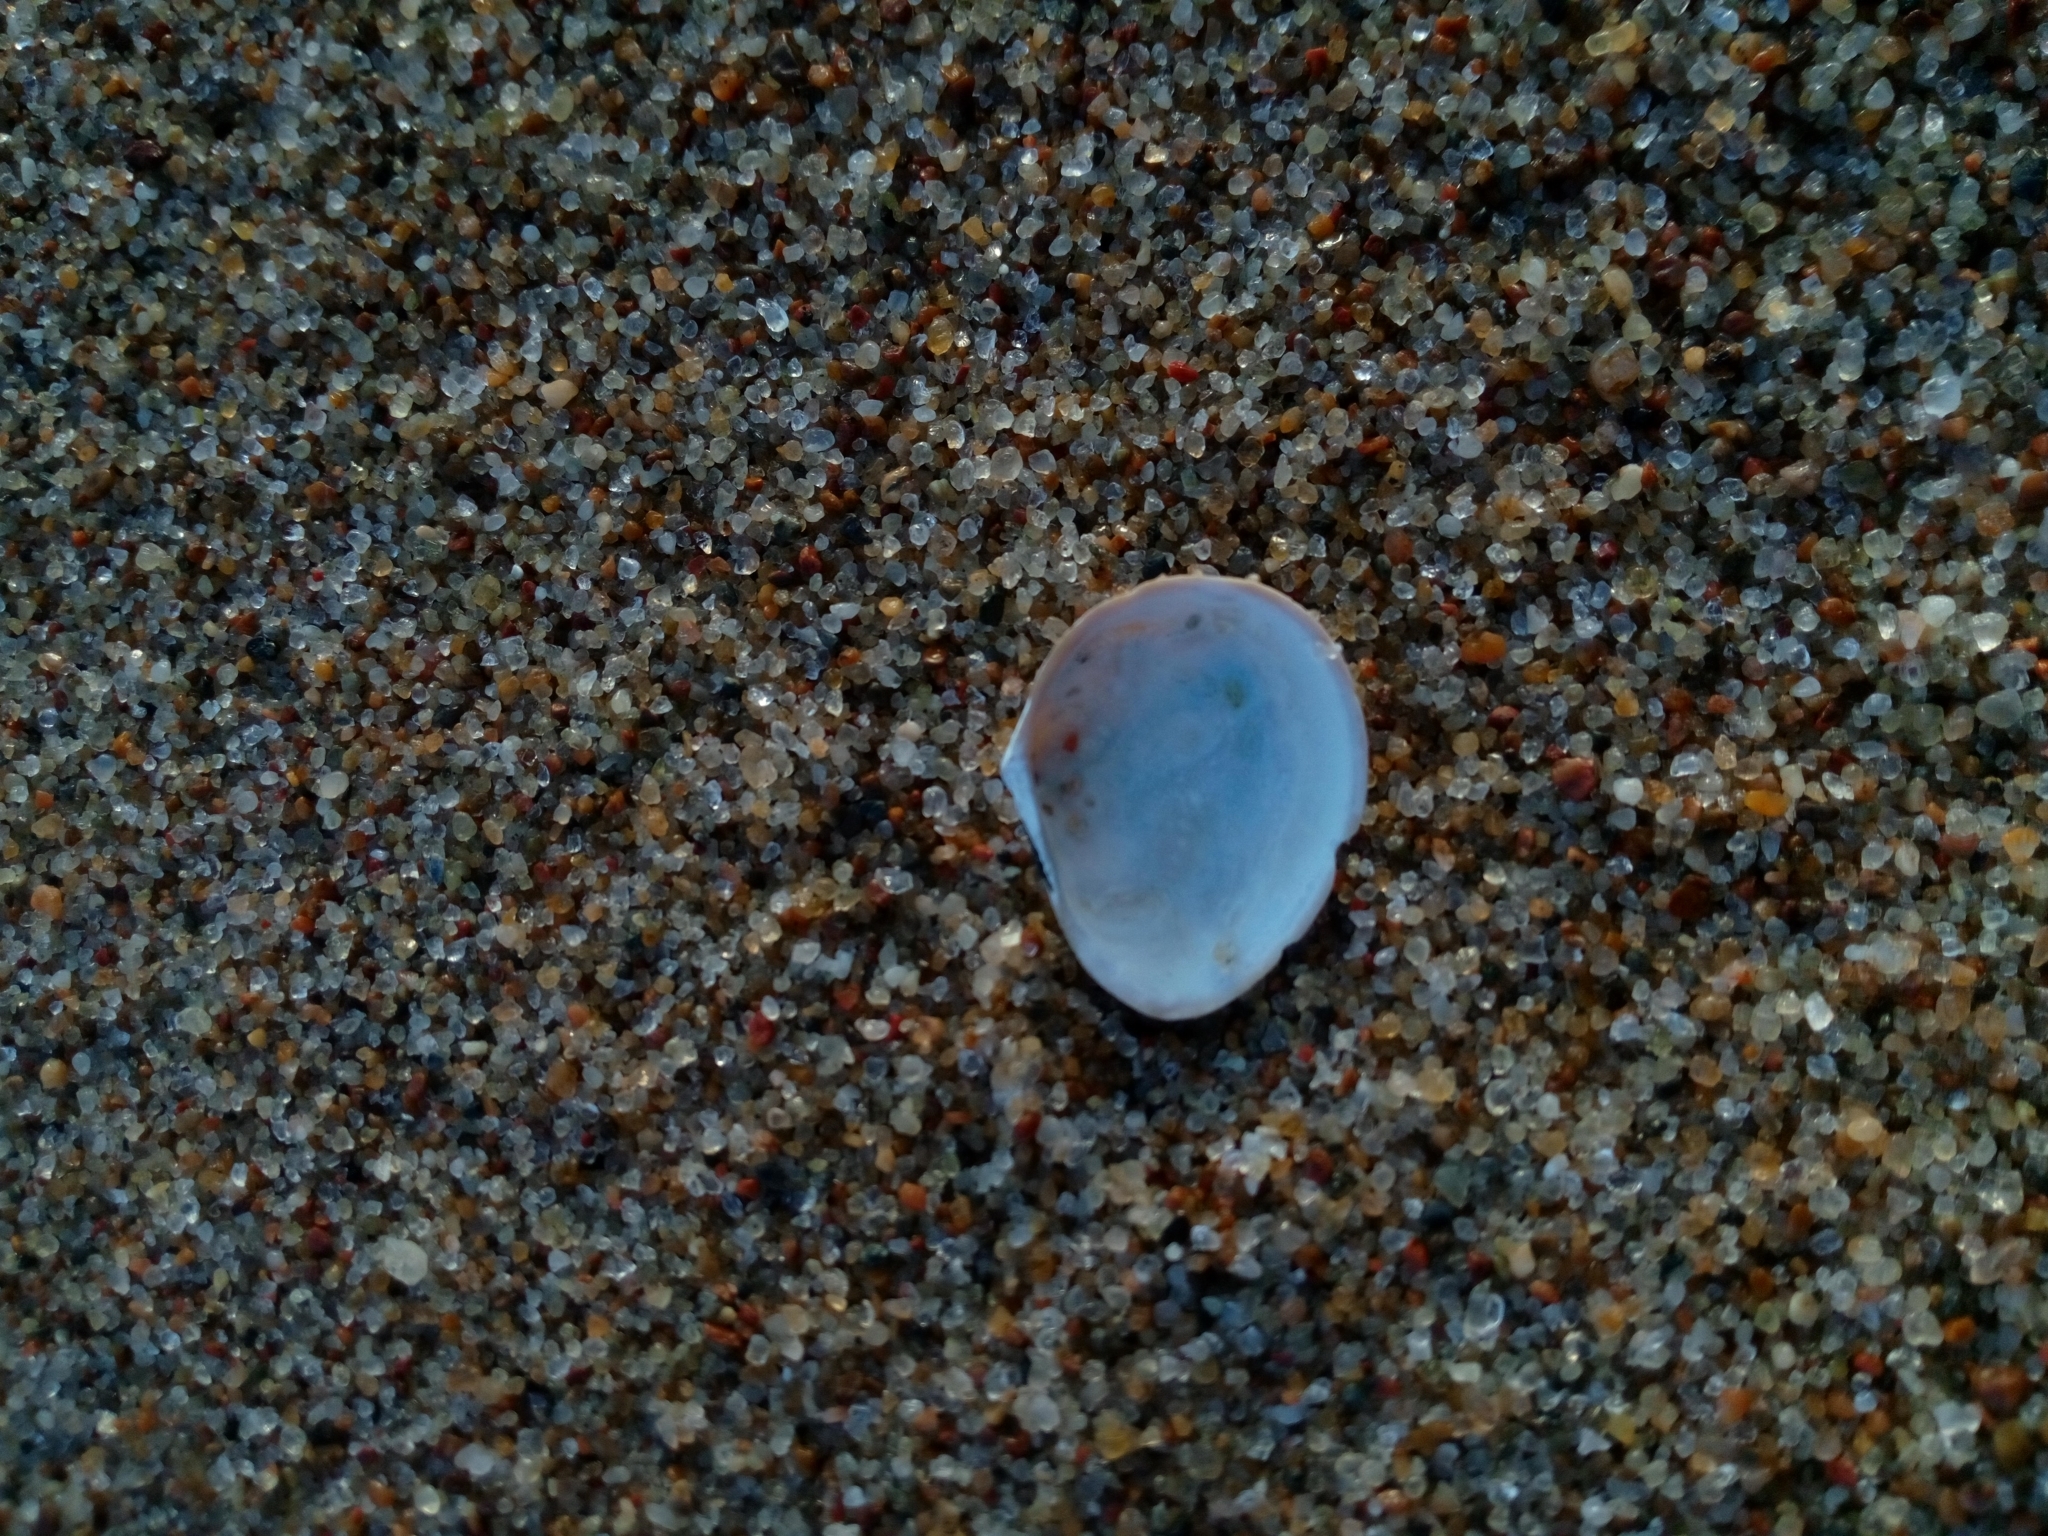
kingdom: Animalia
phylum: Mollusca
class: Bivalvia
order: Cardiida
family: Tellinidae
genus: Macoma
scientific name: Macoma balthica
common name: Baltic tellin
